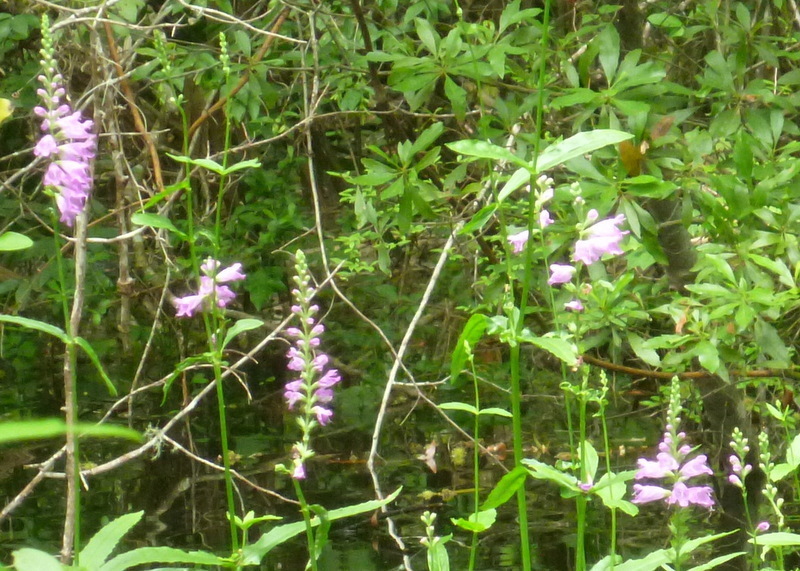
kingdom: Plantae
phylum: Tracheophyta
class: Magnoliopsida
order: Lamiales
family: Lamiaceae
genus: Physostegia
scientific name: Physostegia leptophylla
